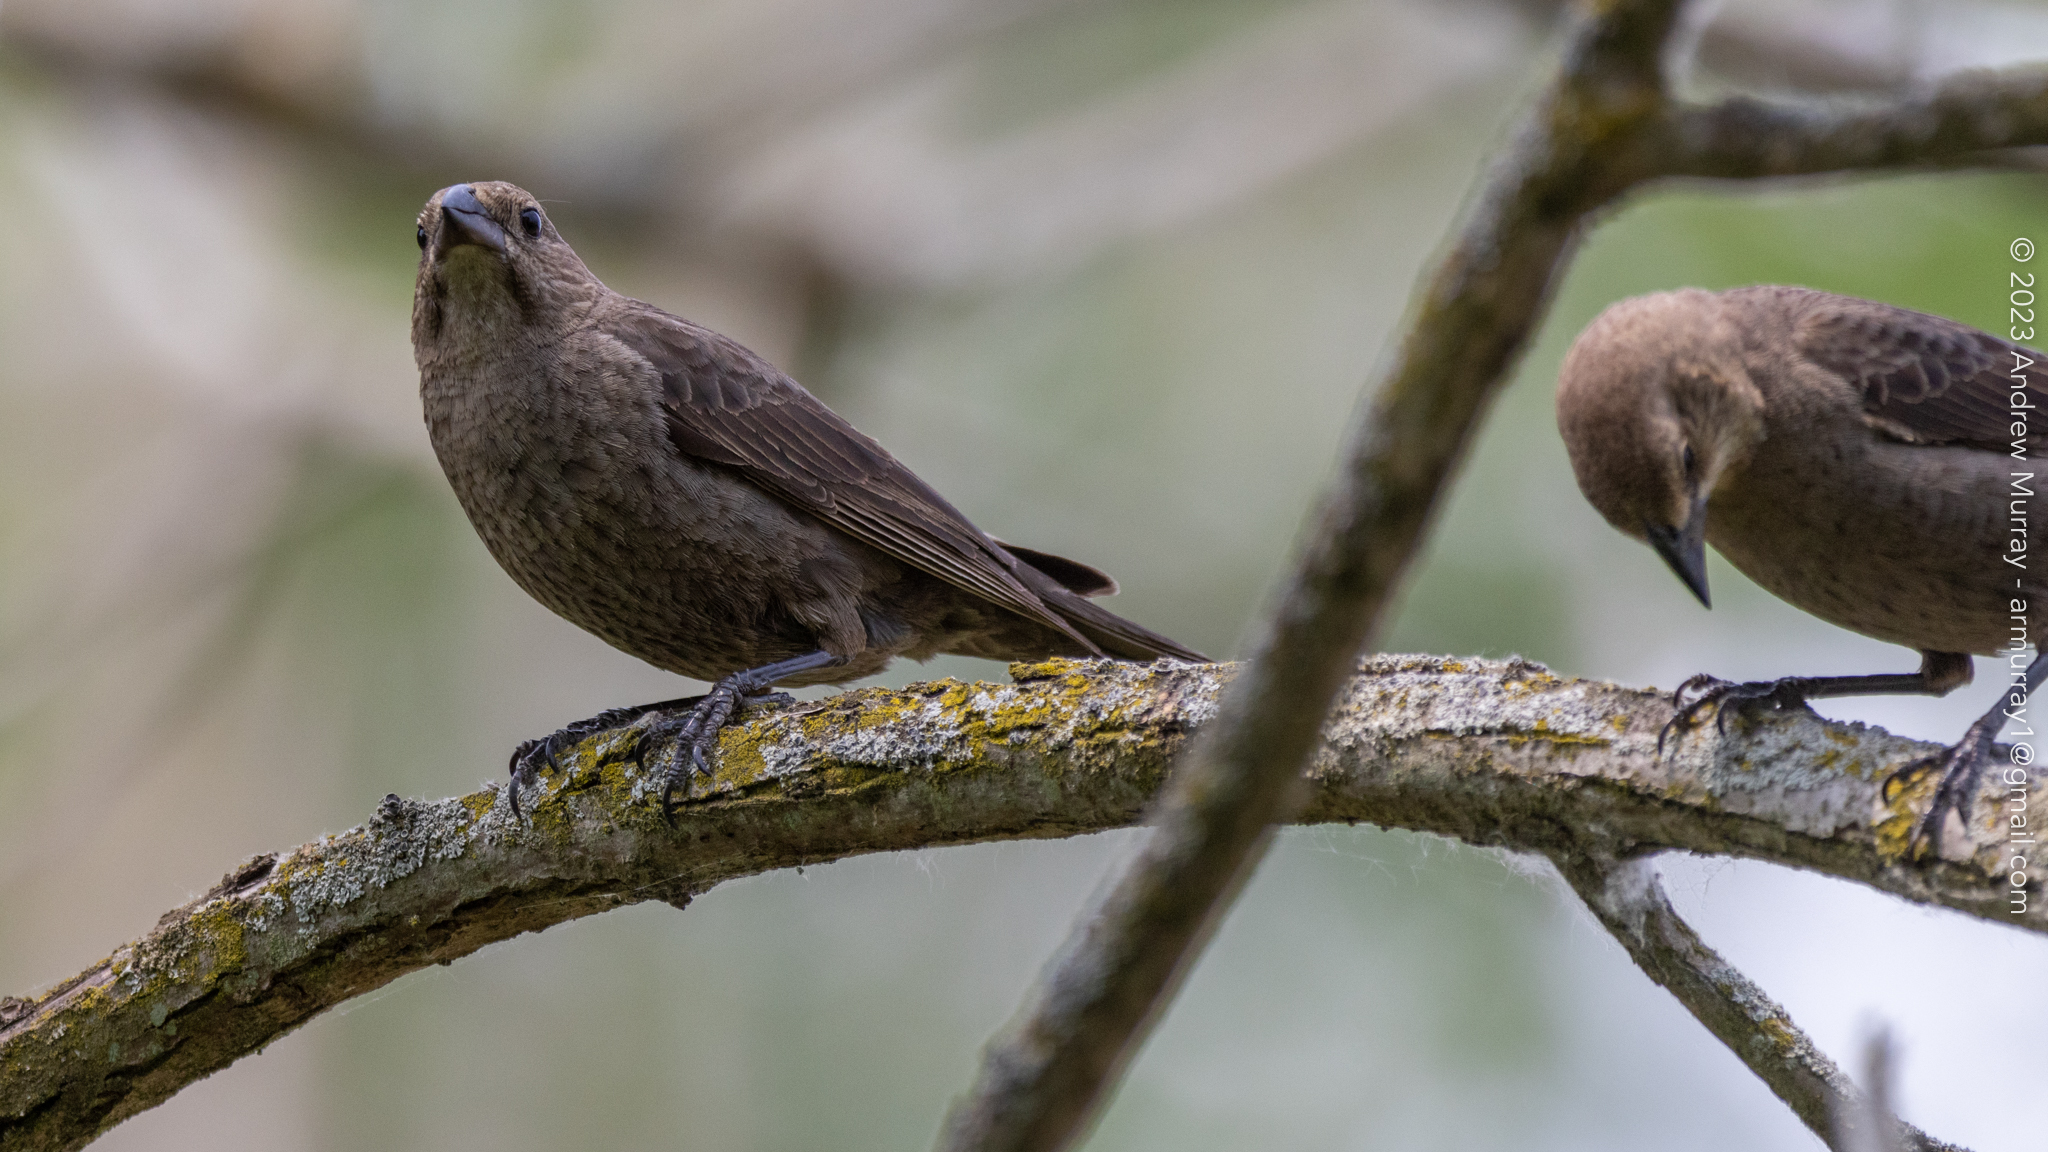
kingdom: Animalia
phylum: Chordata
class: Aves
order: Passeriformes
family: Icteridae
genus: Molothrus
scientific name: Molothrus ater
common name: Brown-headed cowbird
